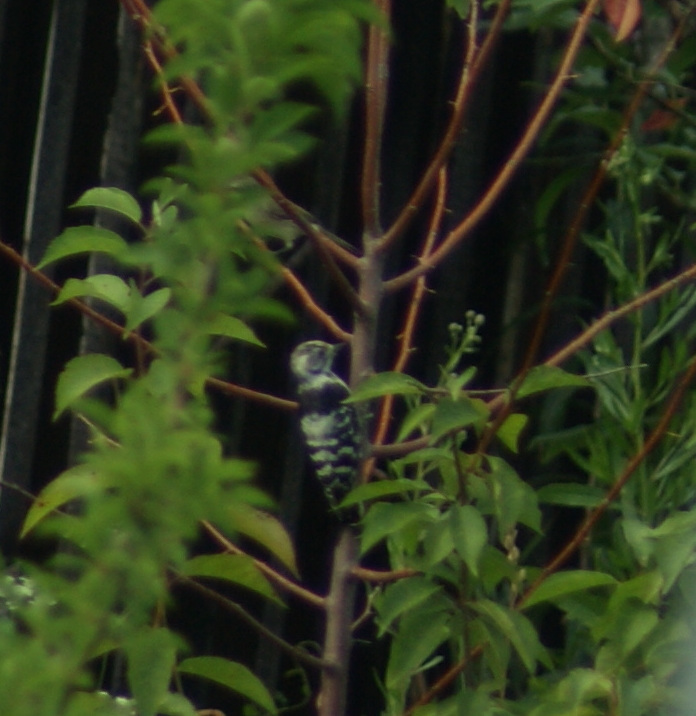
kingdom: Animalia
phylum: Chordata
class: Aves
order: Piciformes
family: Picidae
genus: Dryobates
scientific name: Dryobates minor
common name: Lesser spotted woodpecker
